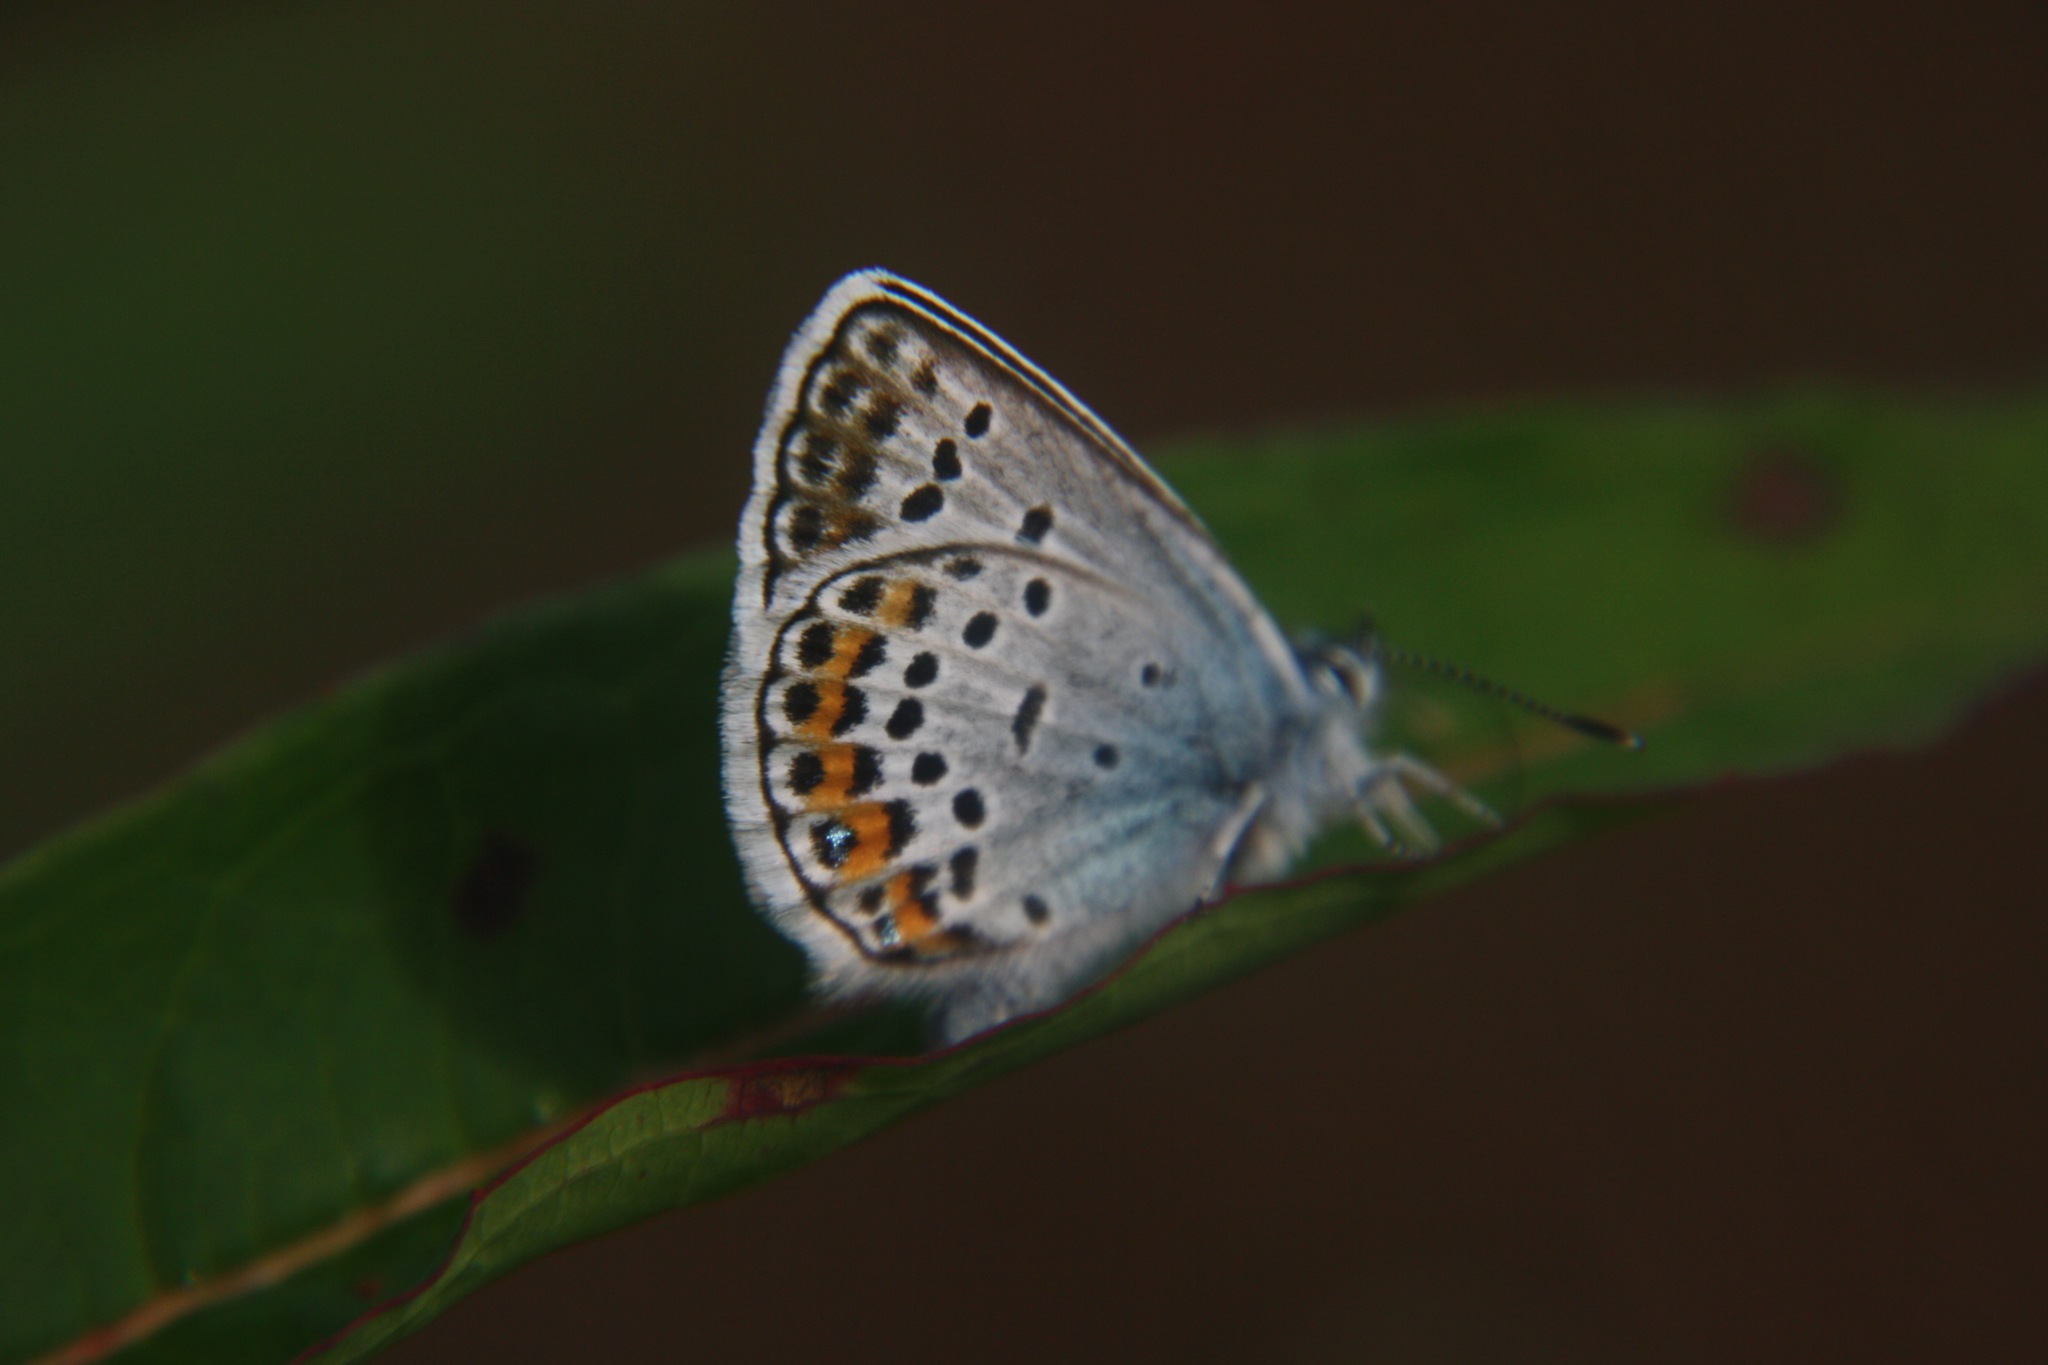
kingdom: Animalia
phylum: Arthropoda
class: Insecta
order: Lepidoptera
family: Lycaenidae
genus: Plebejus
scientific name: Plebejus argus
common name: Silver-studded blue
